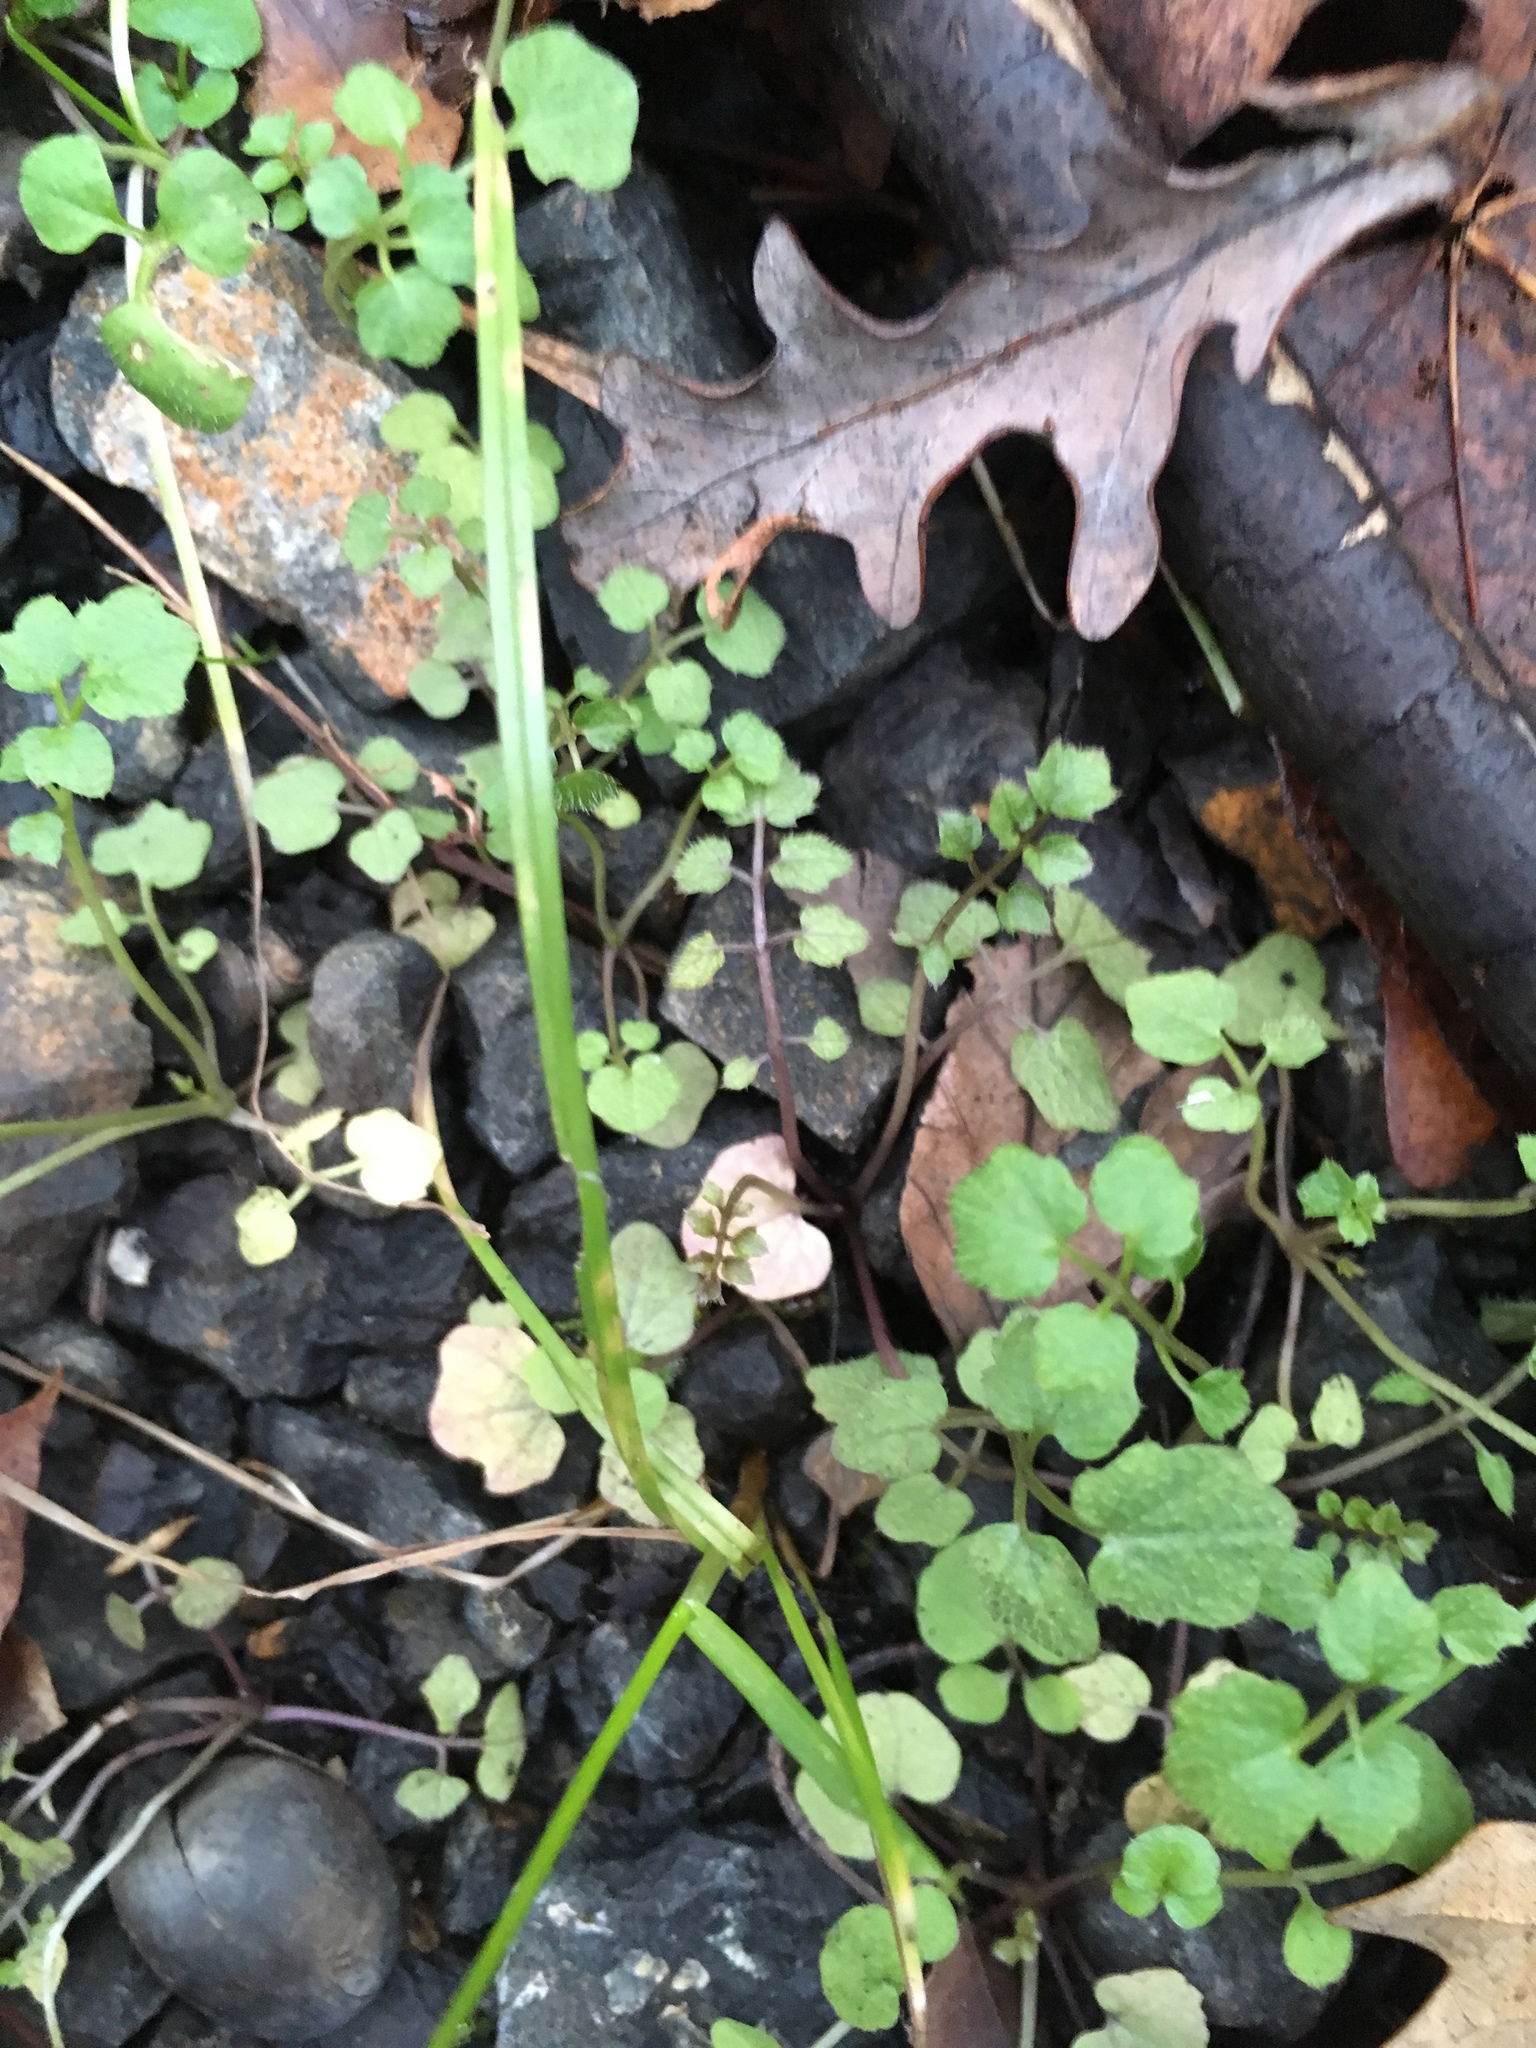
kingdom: Plantae
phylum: Tracheophyta
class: Magnoliopsida
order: Brassicales
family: Brassicaceae
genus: Cardamine
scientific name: Cardamine hirsuta
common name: Hairy bittercress
